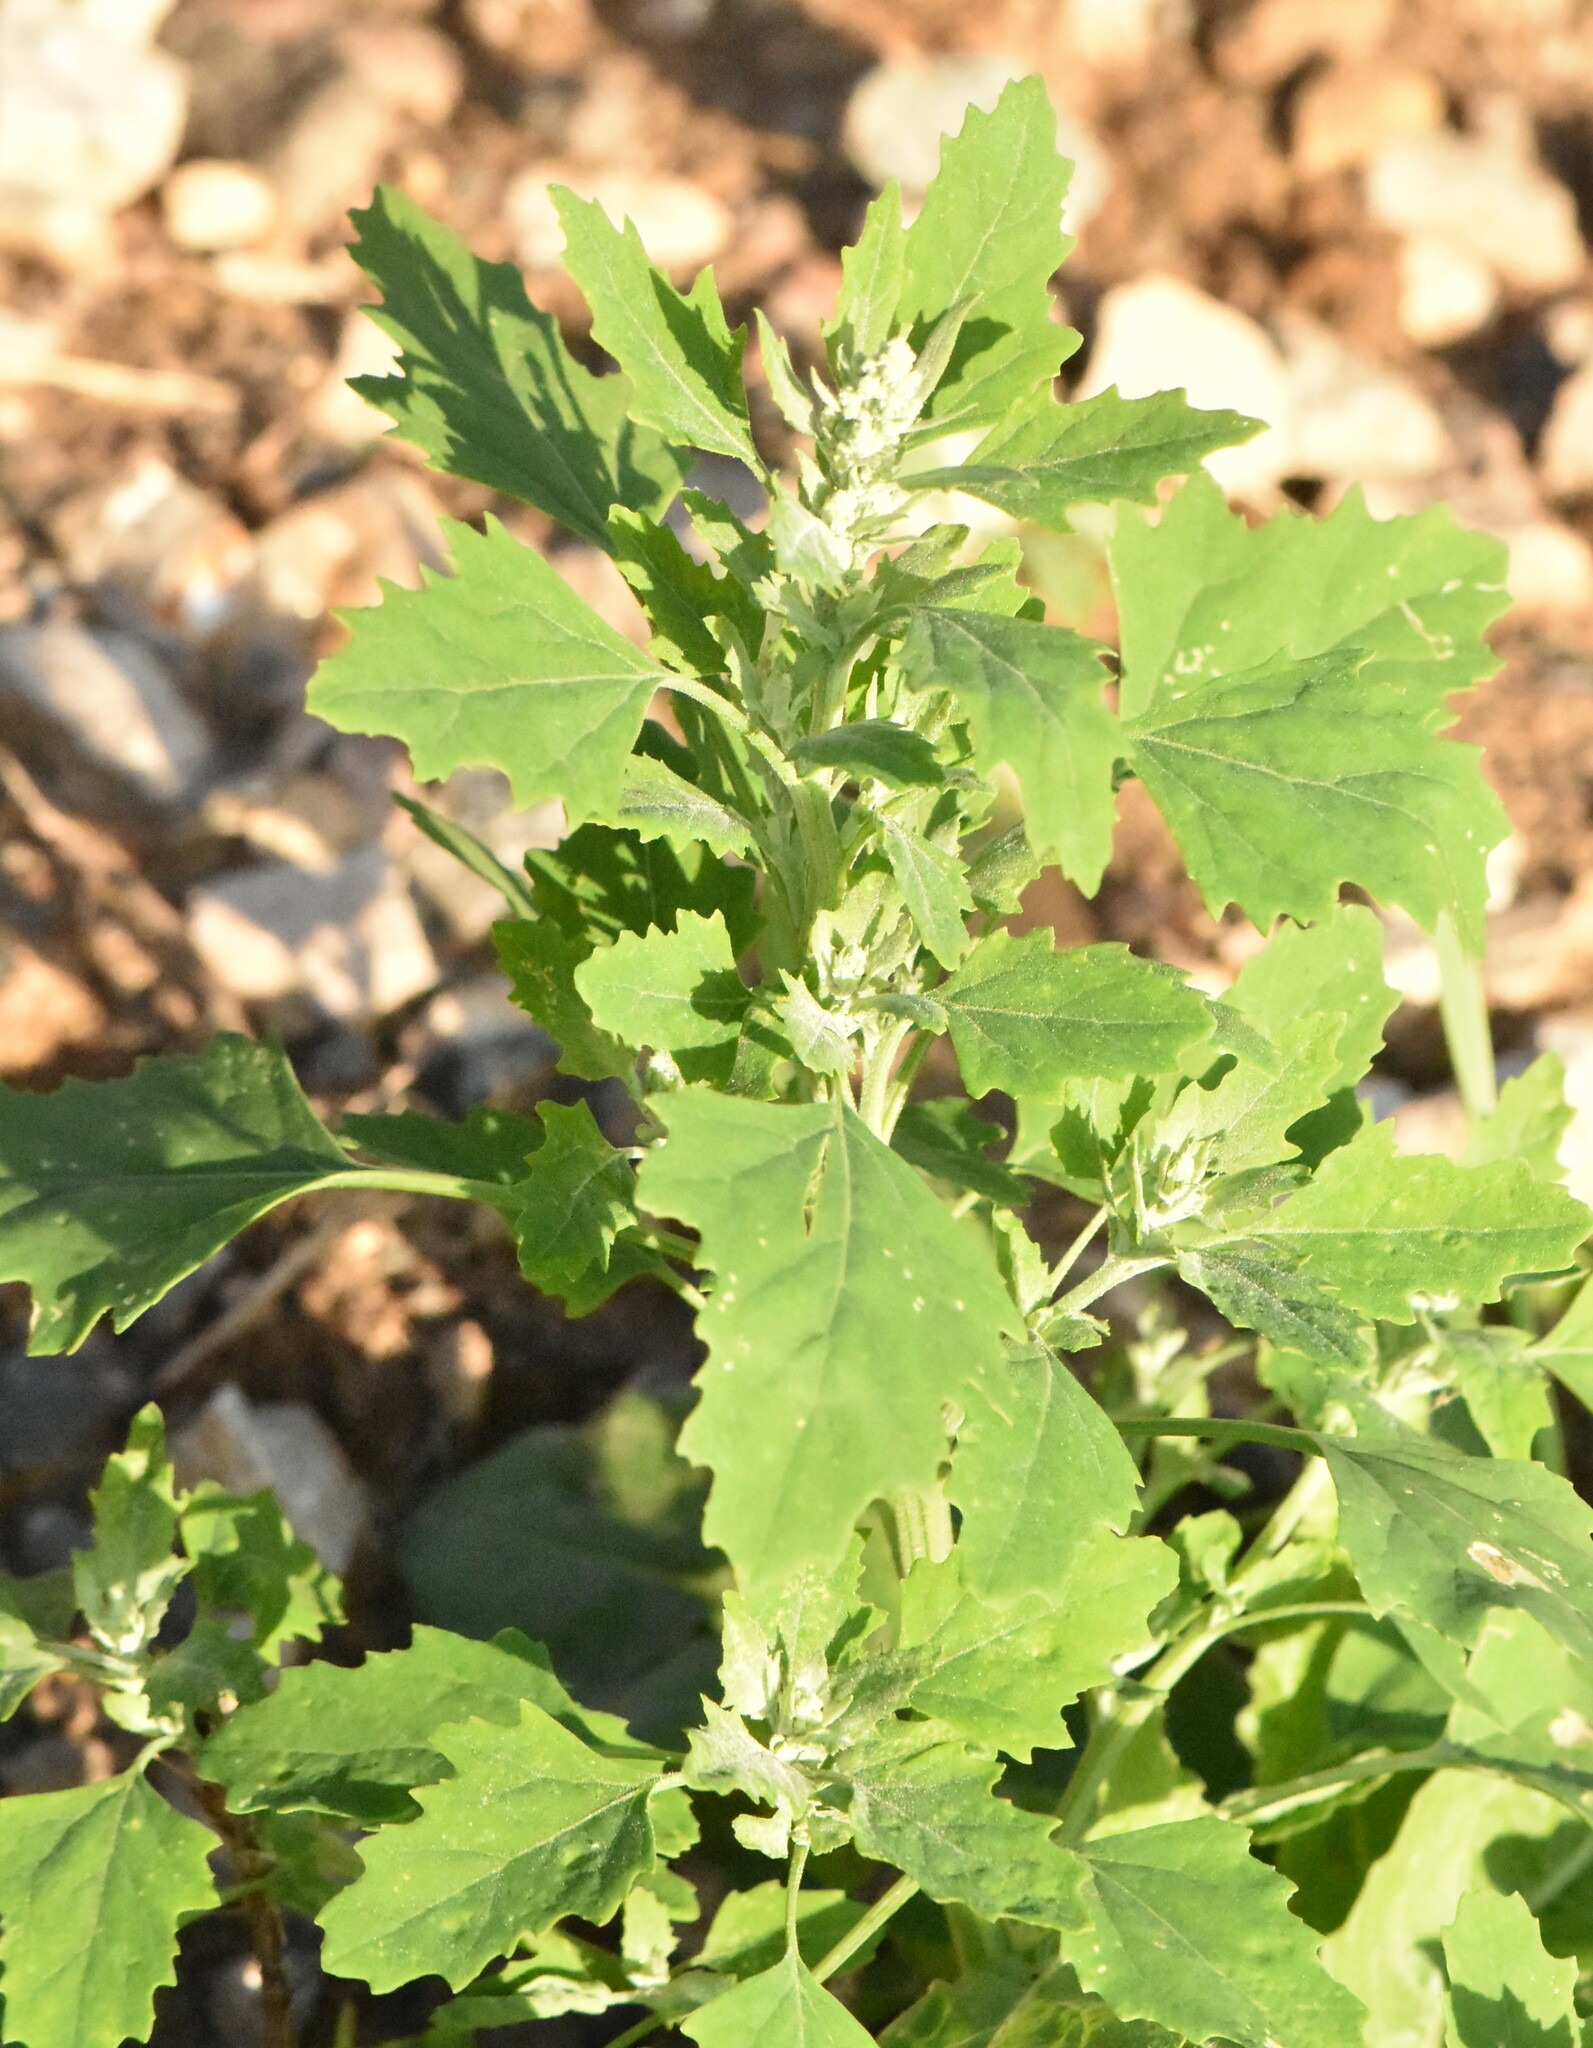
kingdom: Plantae
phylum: Tracheophyta
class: Magnoliopsida
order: Caryophyllales
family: Amaranthaceae
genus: Chenopodium
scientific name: Chenopodium album
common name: Fat-hen
